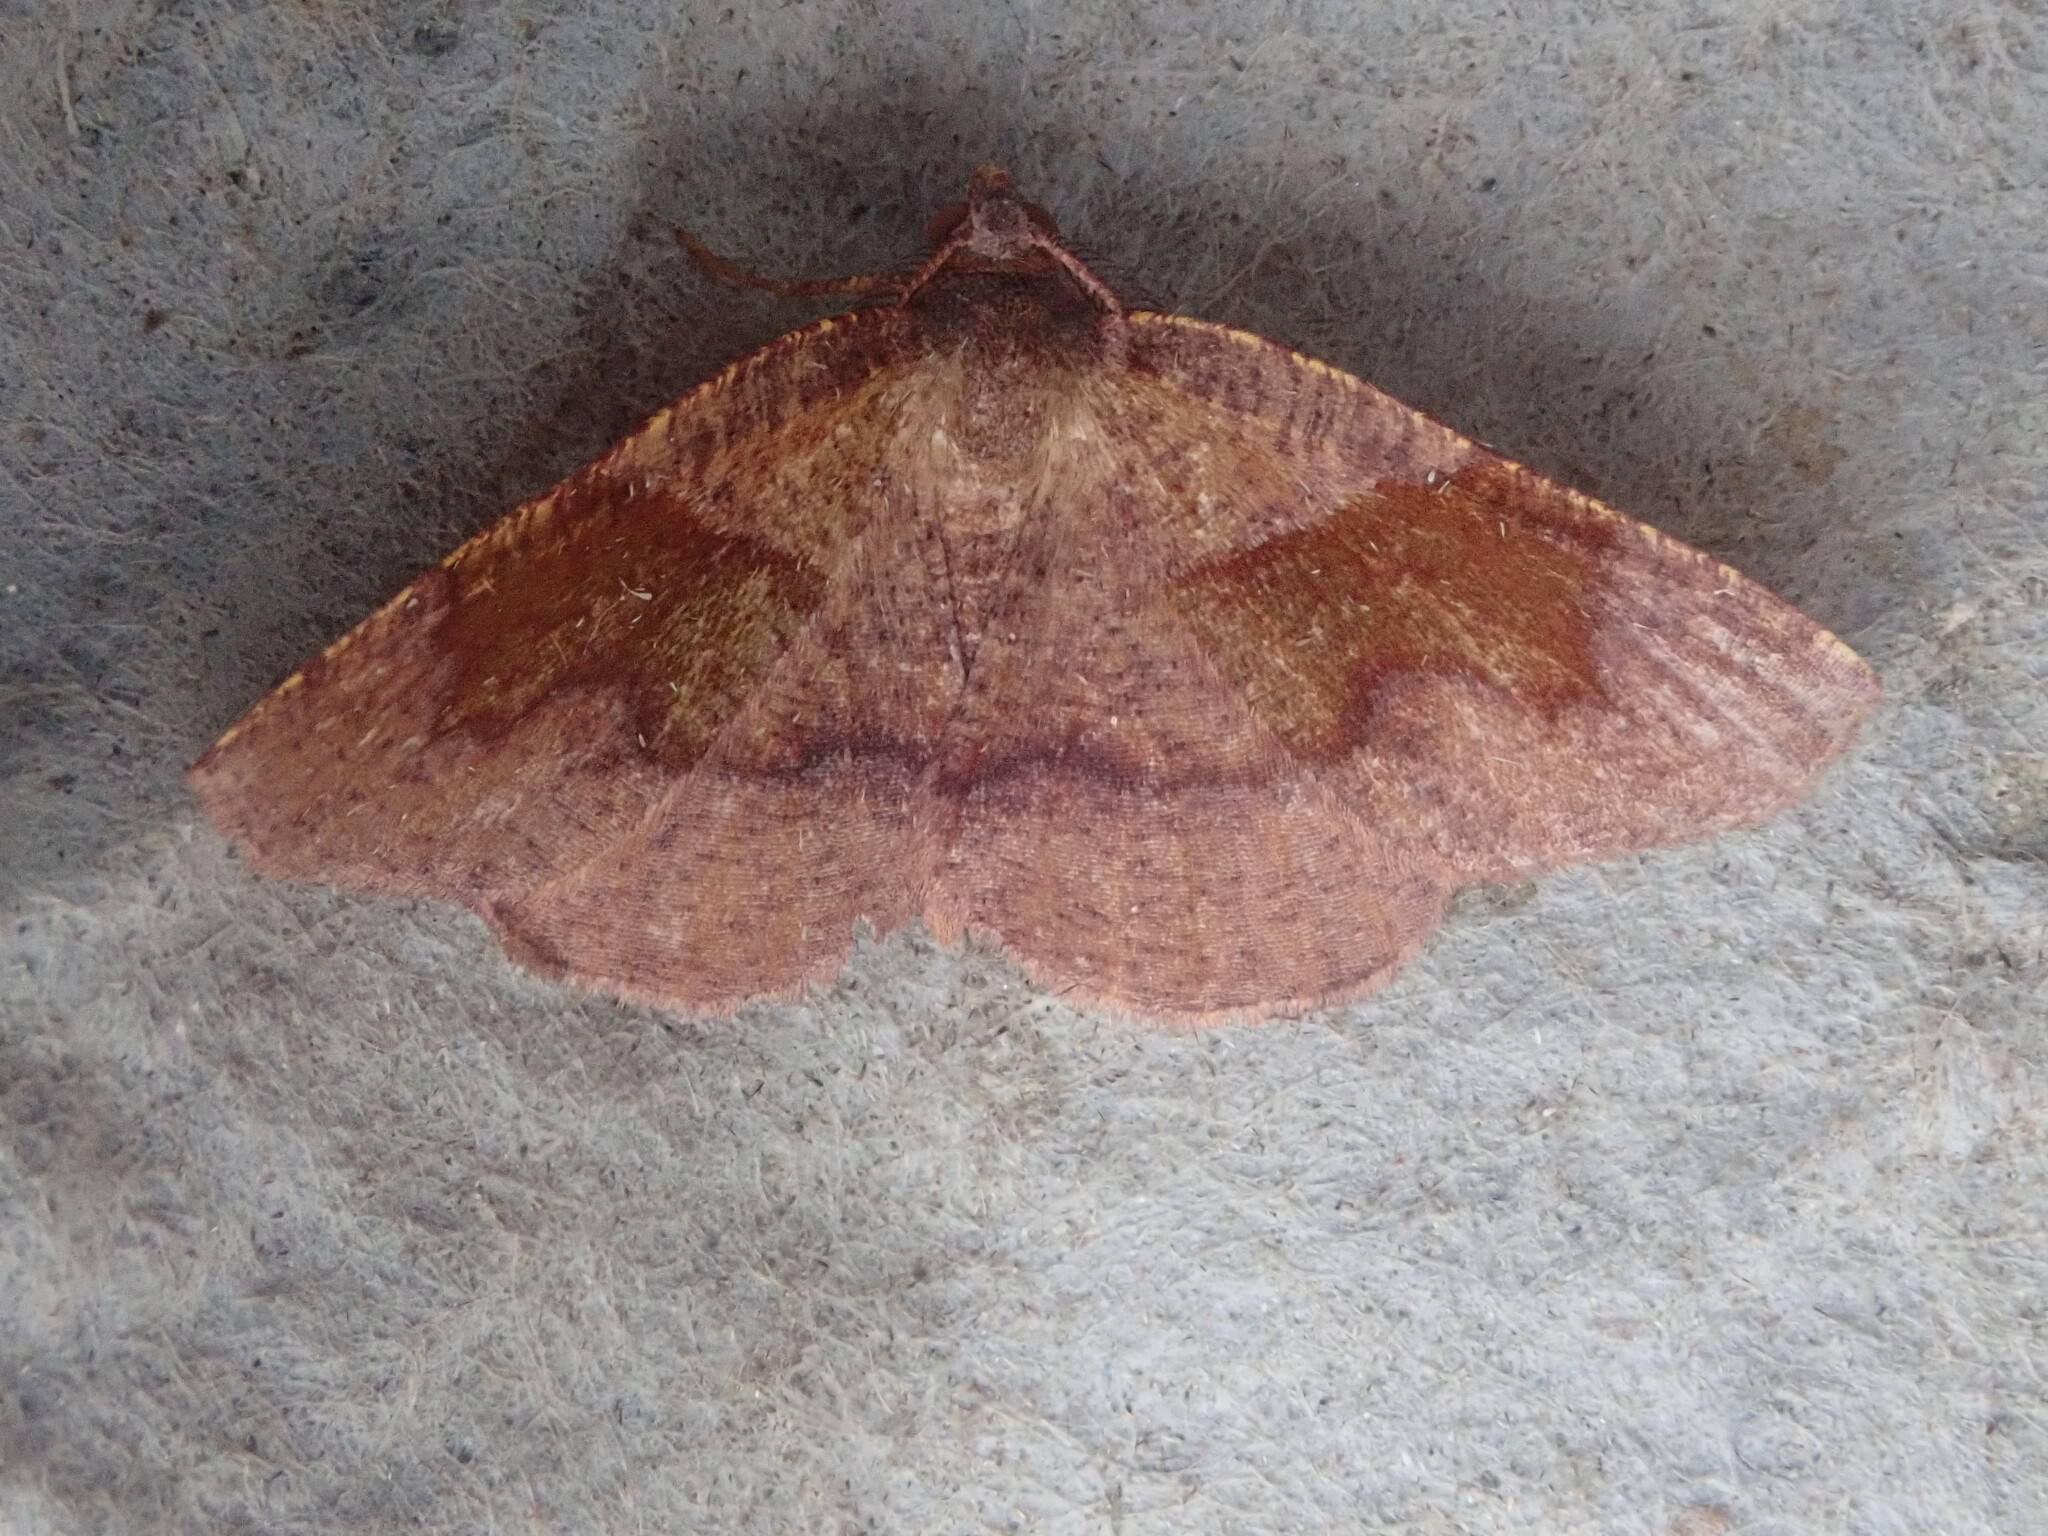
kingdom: Animalia
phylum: Arthropoda
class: Insecta
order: Lepidoptera
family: Geometridae
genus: Plagodis
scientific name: Plagodis pulveraria
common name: Barred umber
